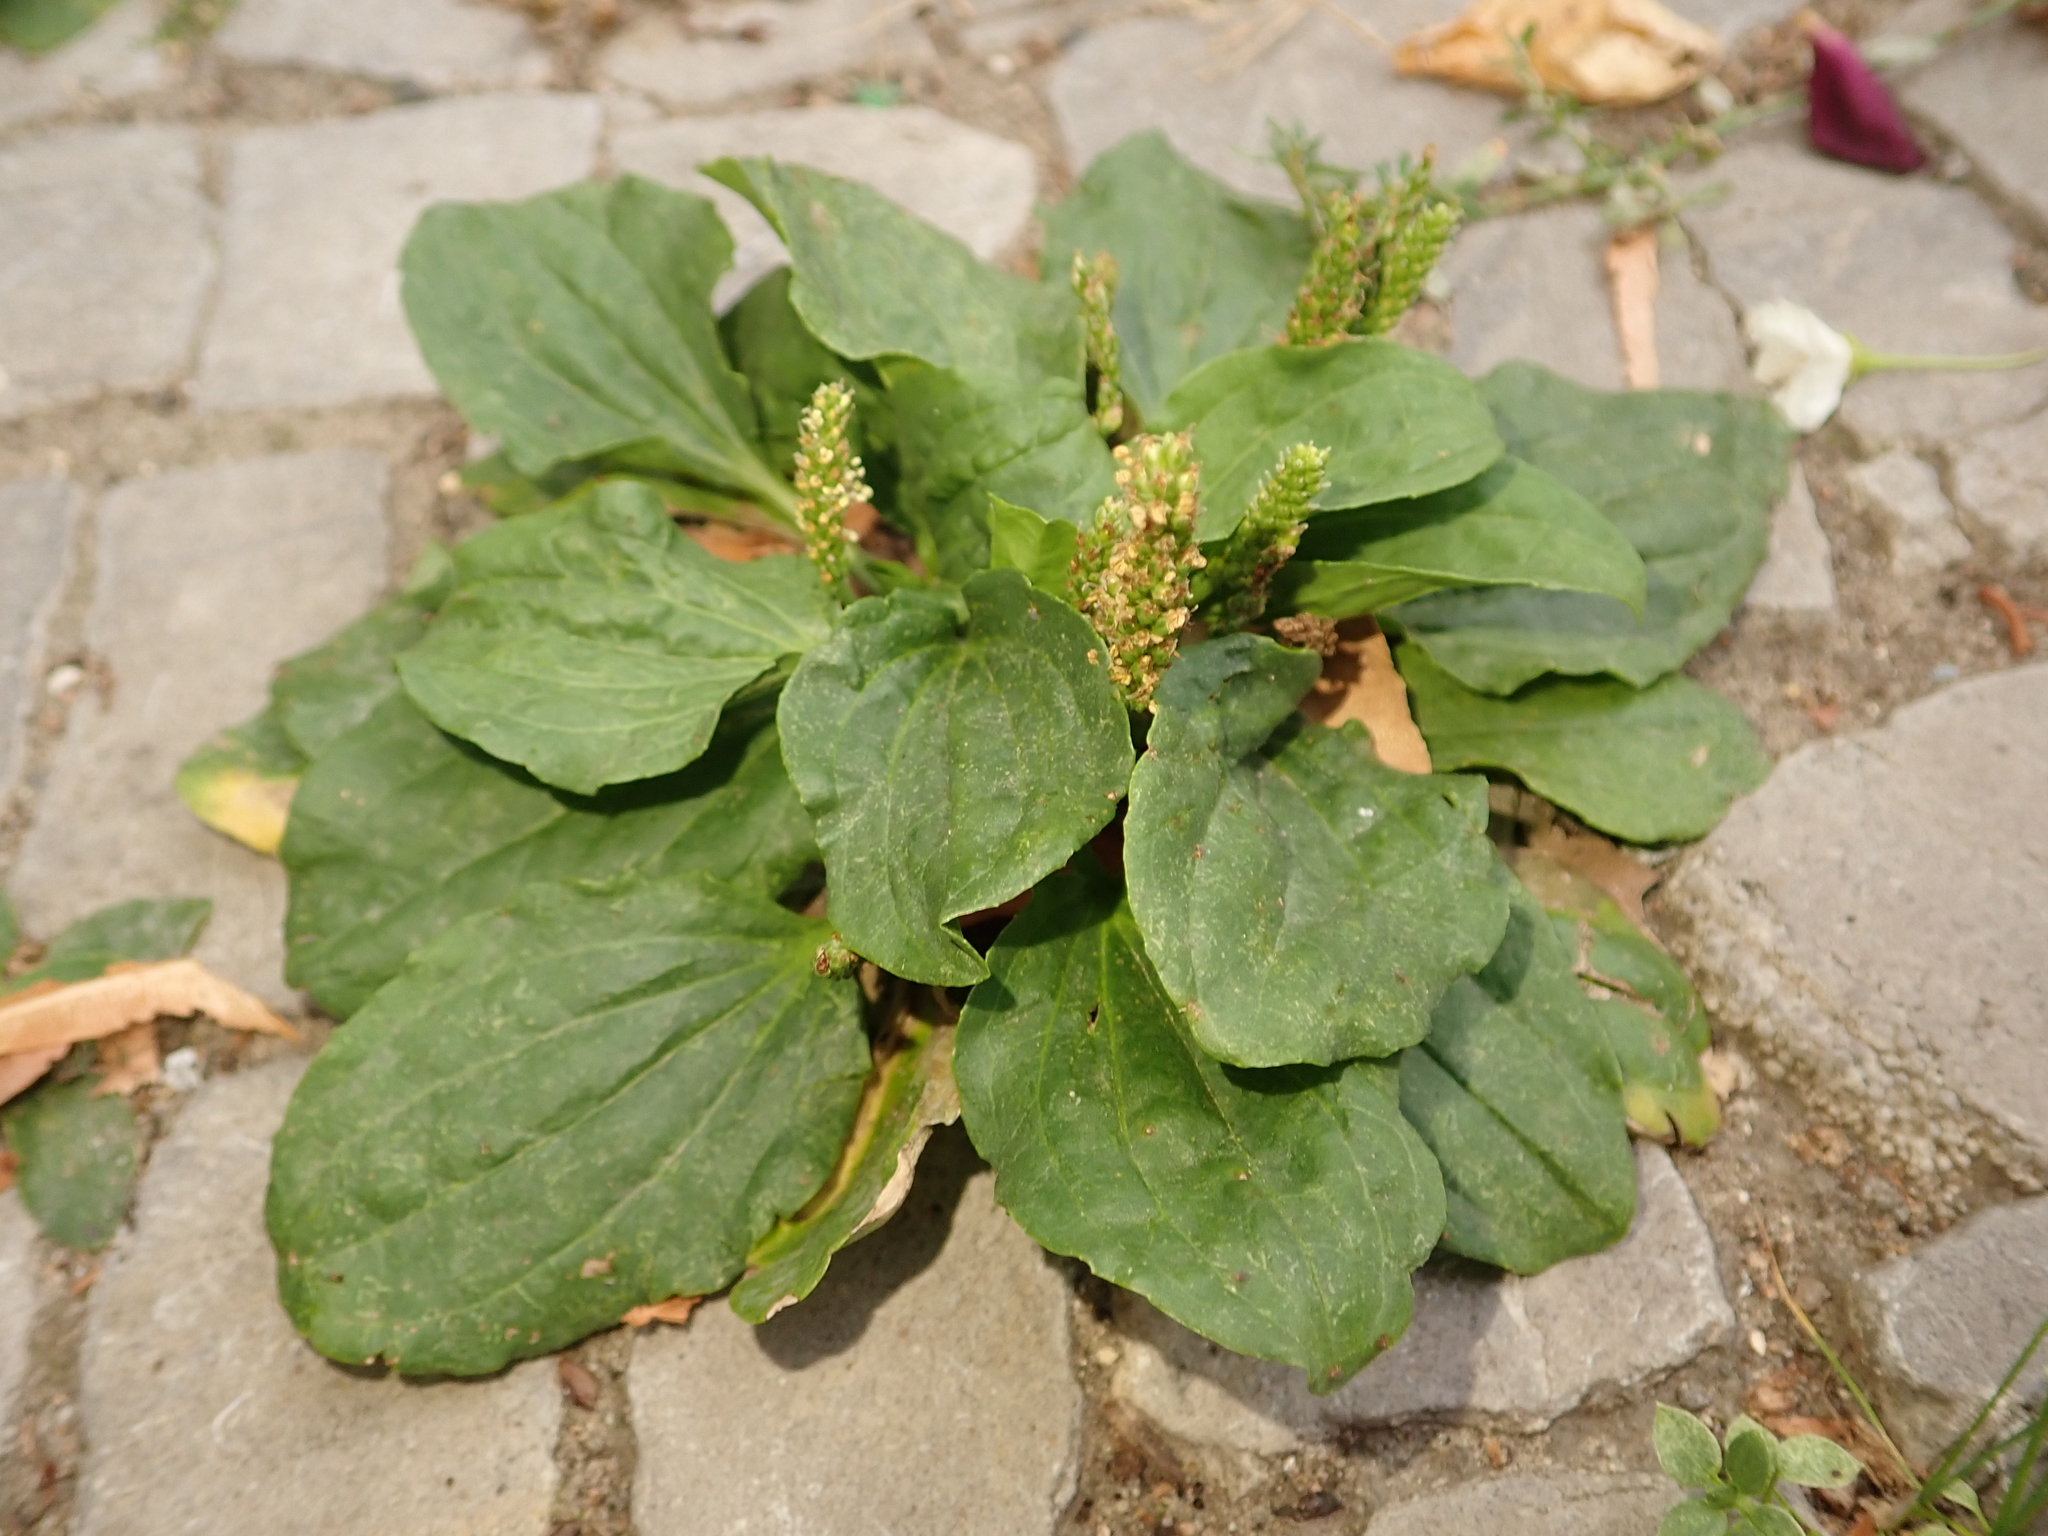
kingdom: Plantae
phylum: Tracheophyta
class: Magnoliopsida
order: Lamiales
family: Plantaginaceae
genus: Plantago
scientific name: Plantago major
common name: Common plantain
